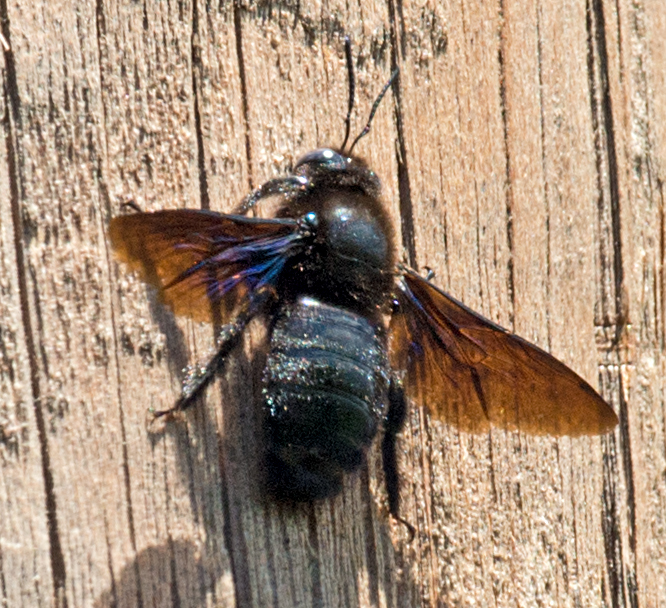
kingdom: Animalia
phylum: Arthropoda
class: Insecta
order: Hymenoptera
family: Apidae
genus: Xylocopa
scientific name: Xylocopa valga
